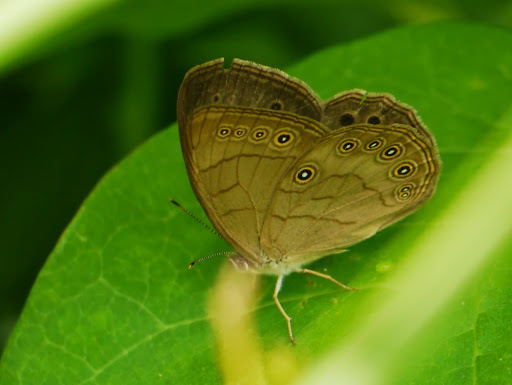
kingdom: Animalia
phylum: Arthropoda
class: Insecta
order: Lepidoptera
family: Nymphalidae
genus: Lethe
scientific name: Lethe eurydice
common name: Eyed brown
